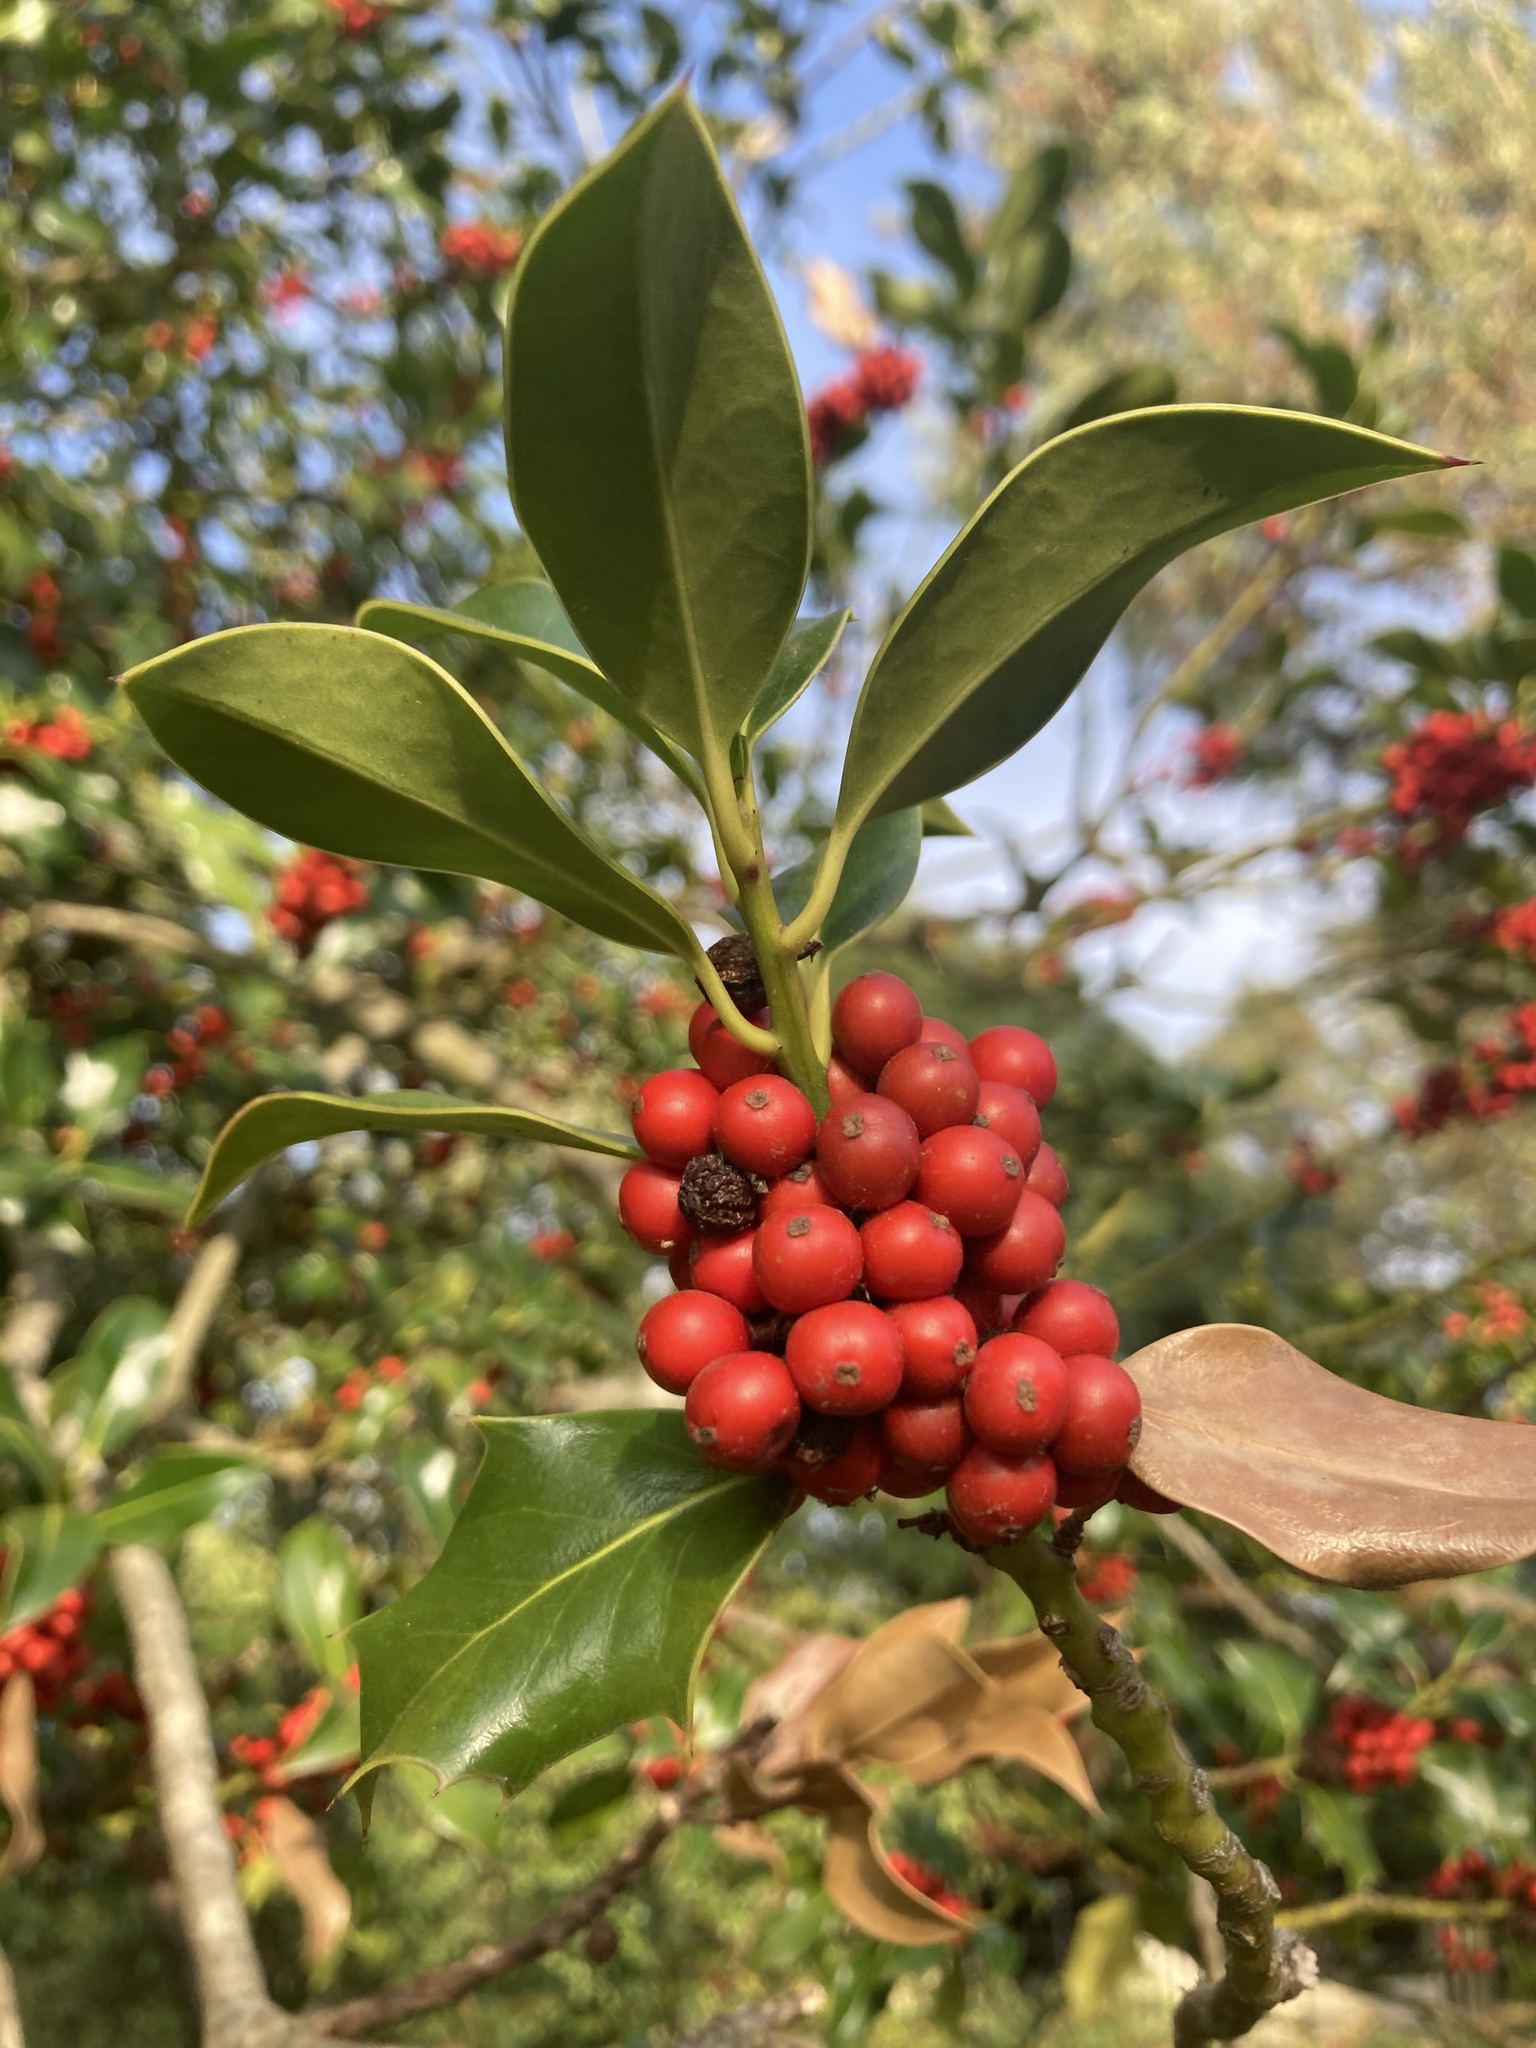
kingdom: Plantae
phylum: Tracheophyta
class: Magnoliopsida
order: Aquifoliales
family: Aquifoliaceae
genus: Ilex
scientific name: Ilex aquifolium
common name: English holly
